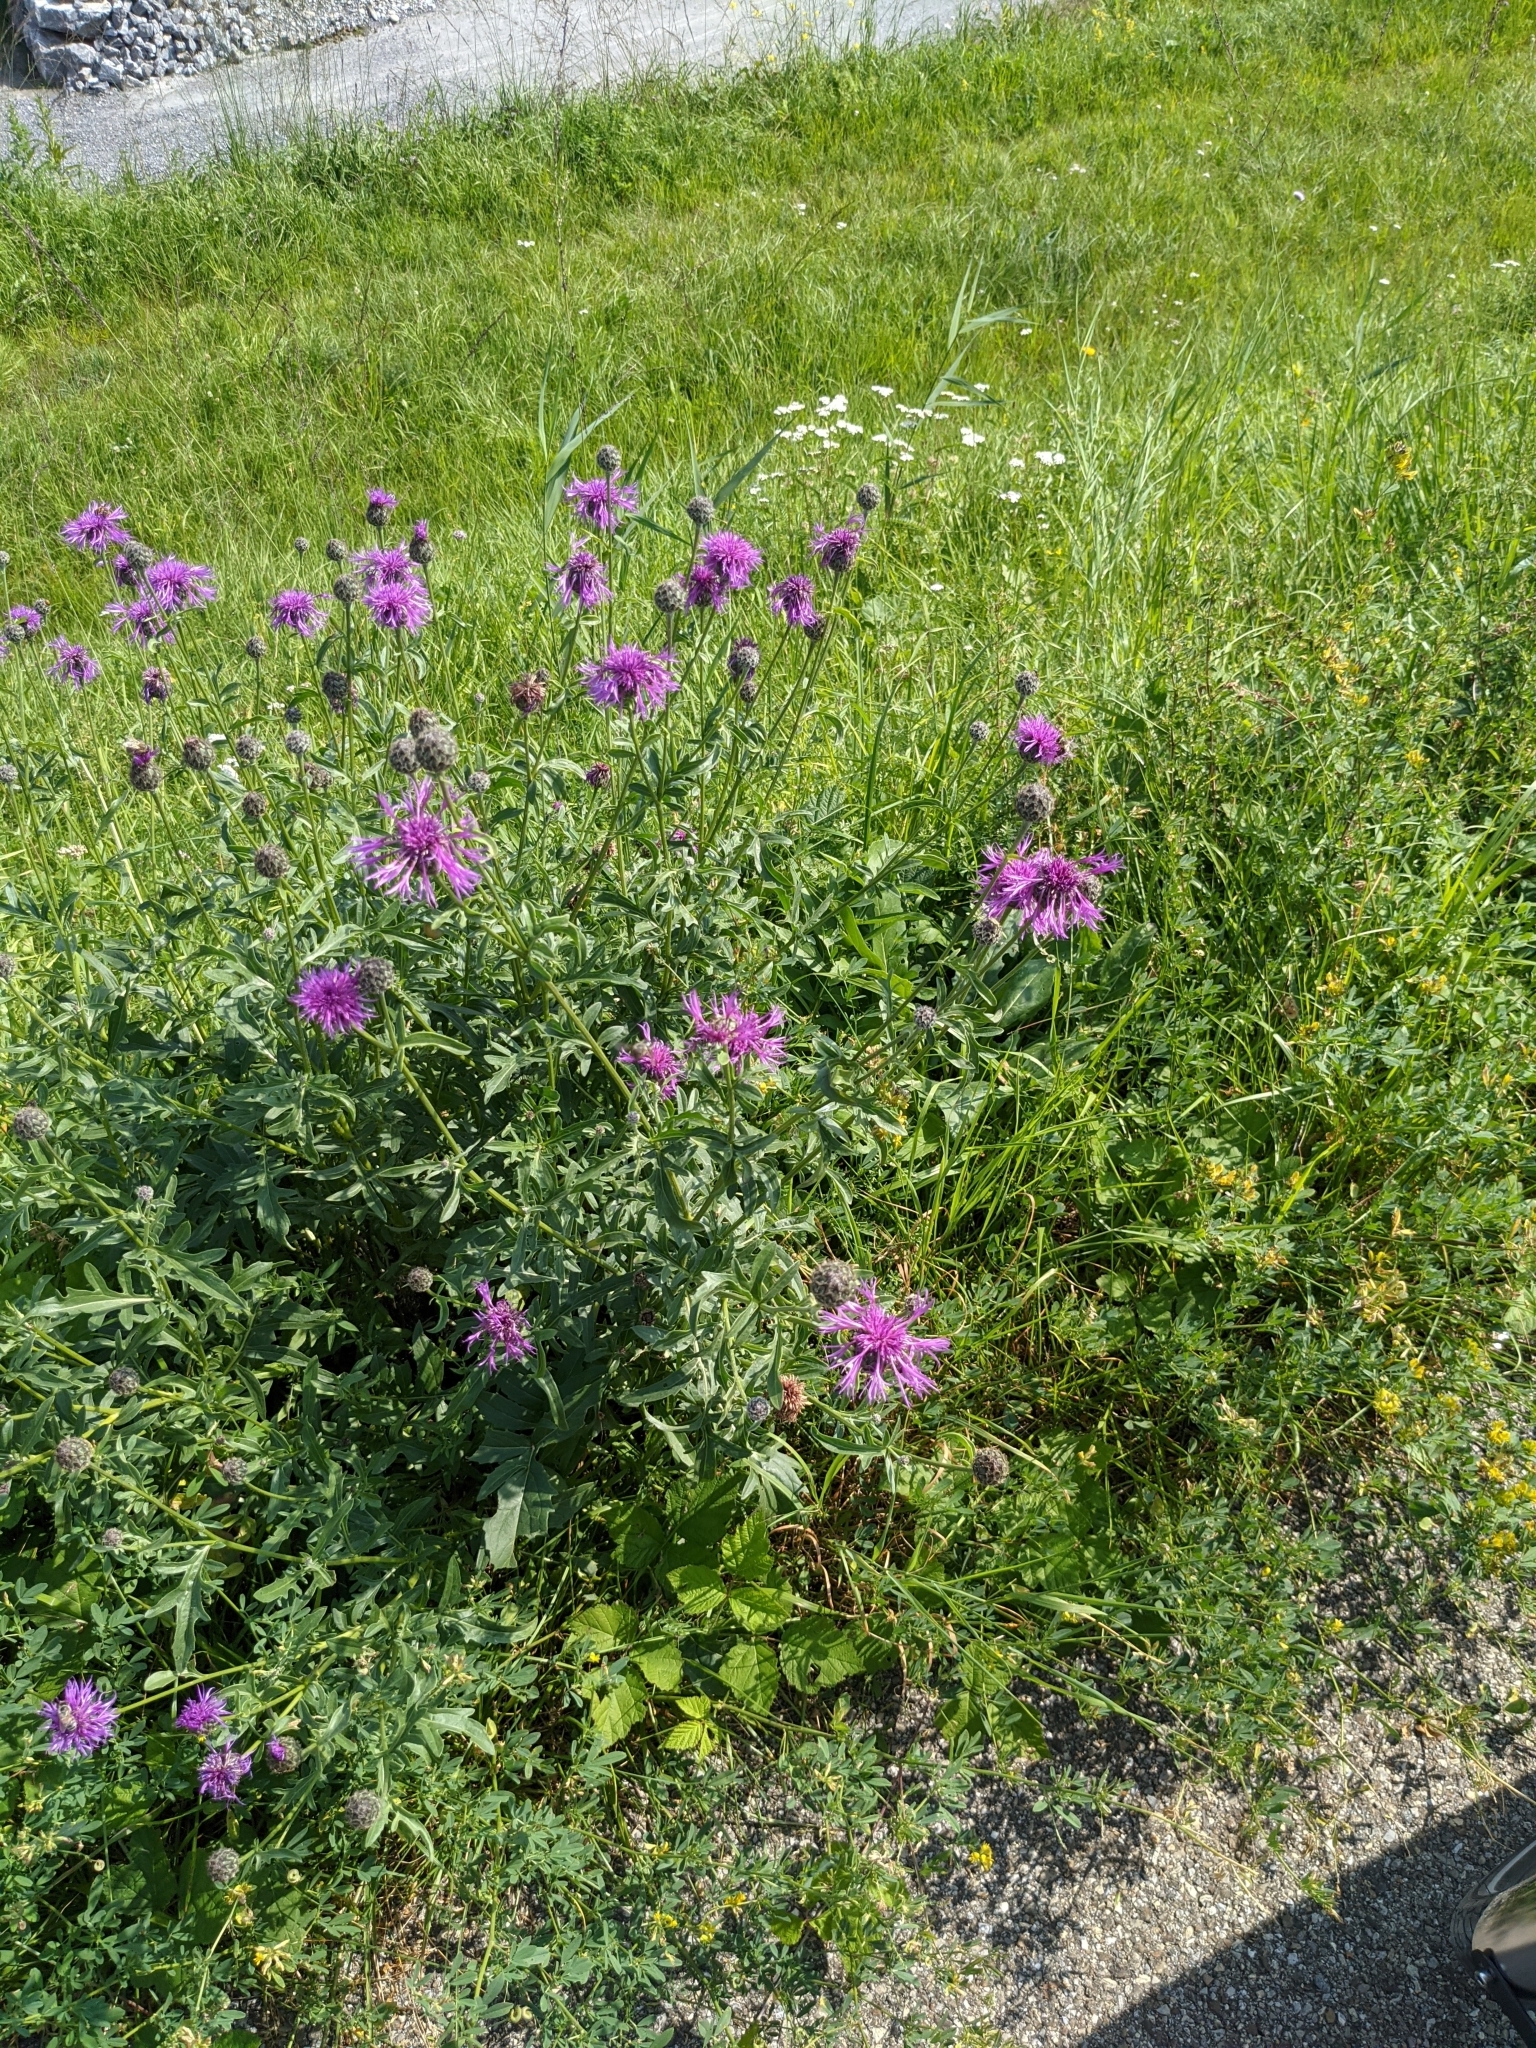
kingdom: Plantae
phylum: Tracheophyta
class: Magnoliopsida
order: Asterales
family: Asteraceae
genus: Centaurea
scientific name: Centaurea scabiosa
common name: Greater knapweed
